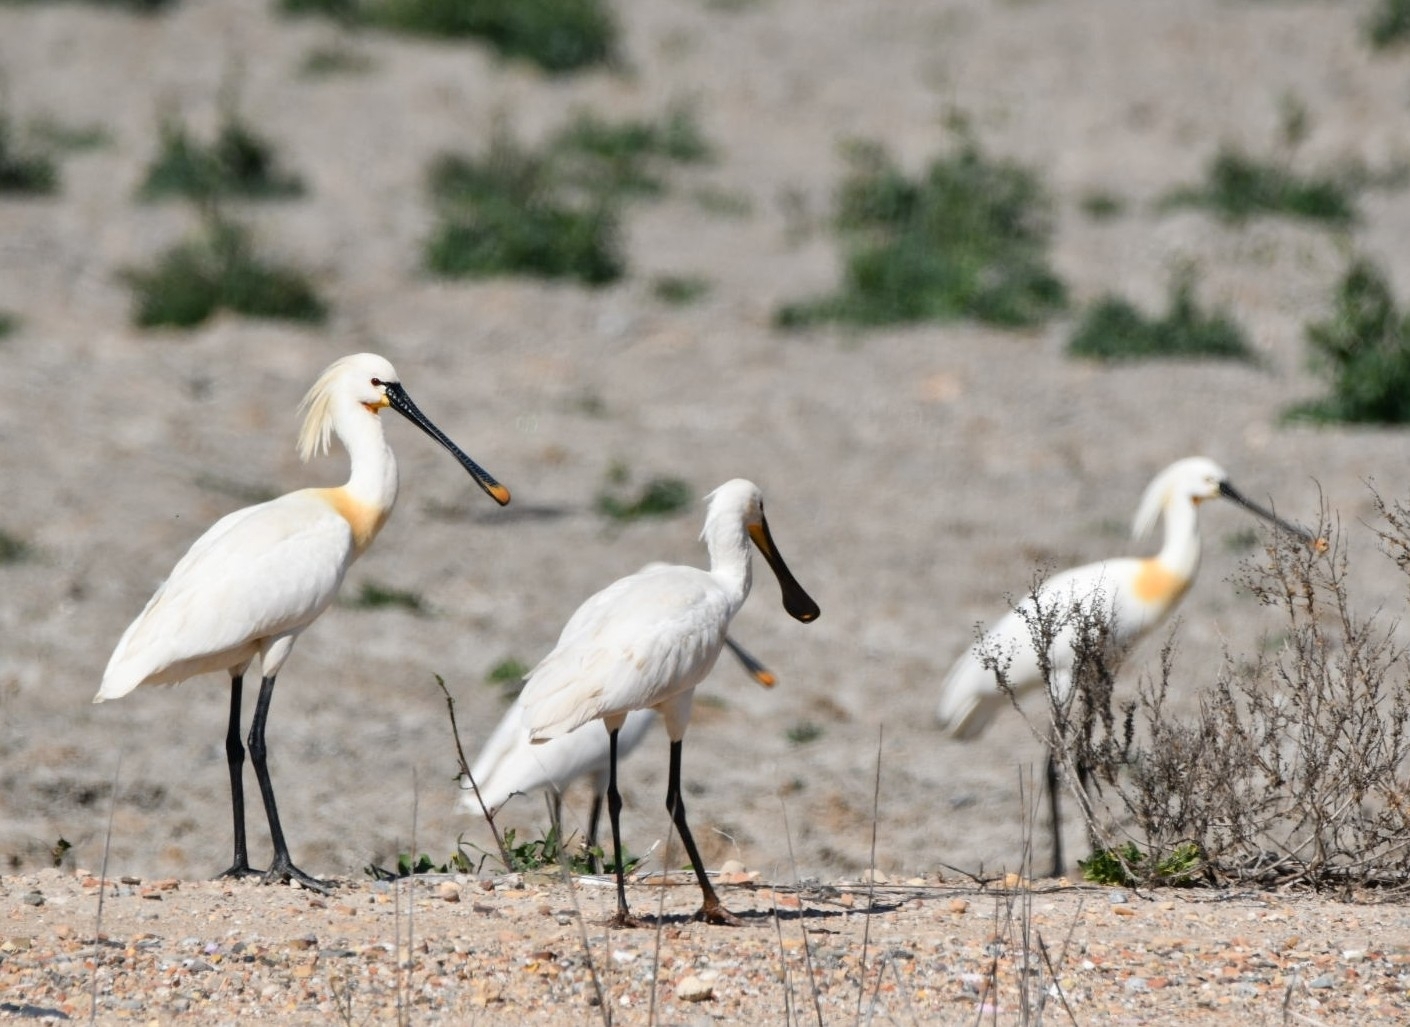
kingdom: Animalia
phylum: Chordata
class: Aves
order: Pelecaniformes
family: Threskiornithidae
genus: Platalea
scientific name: Platalea leucorodia
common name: Eurasian spoonbill
